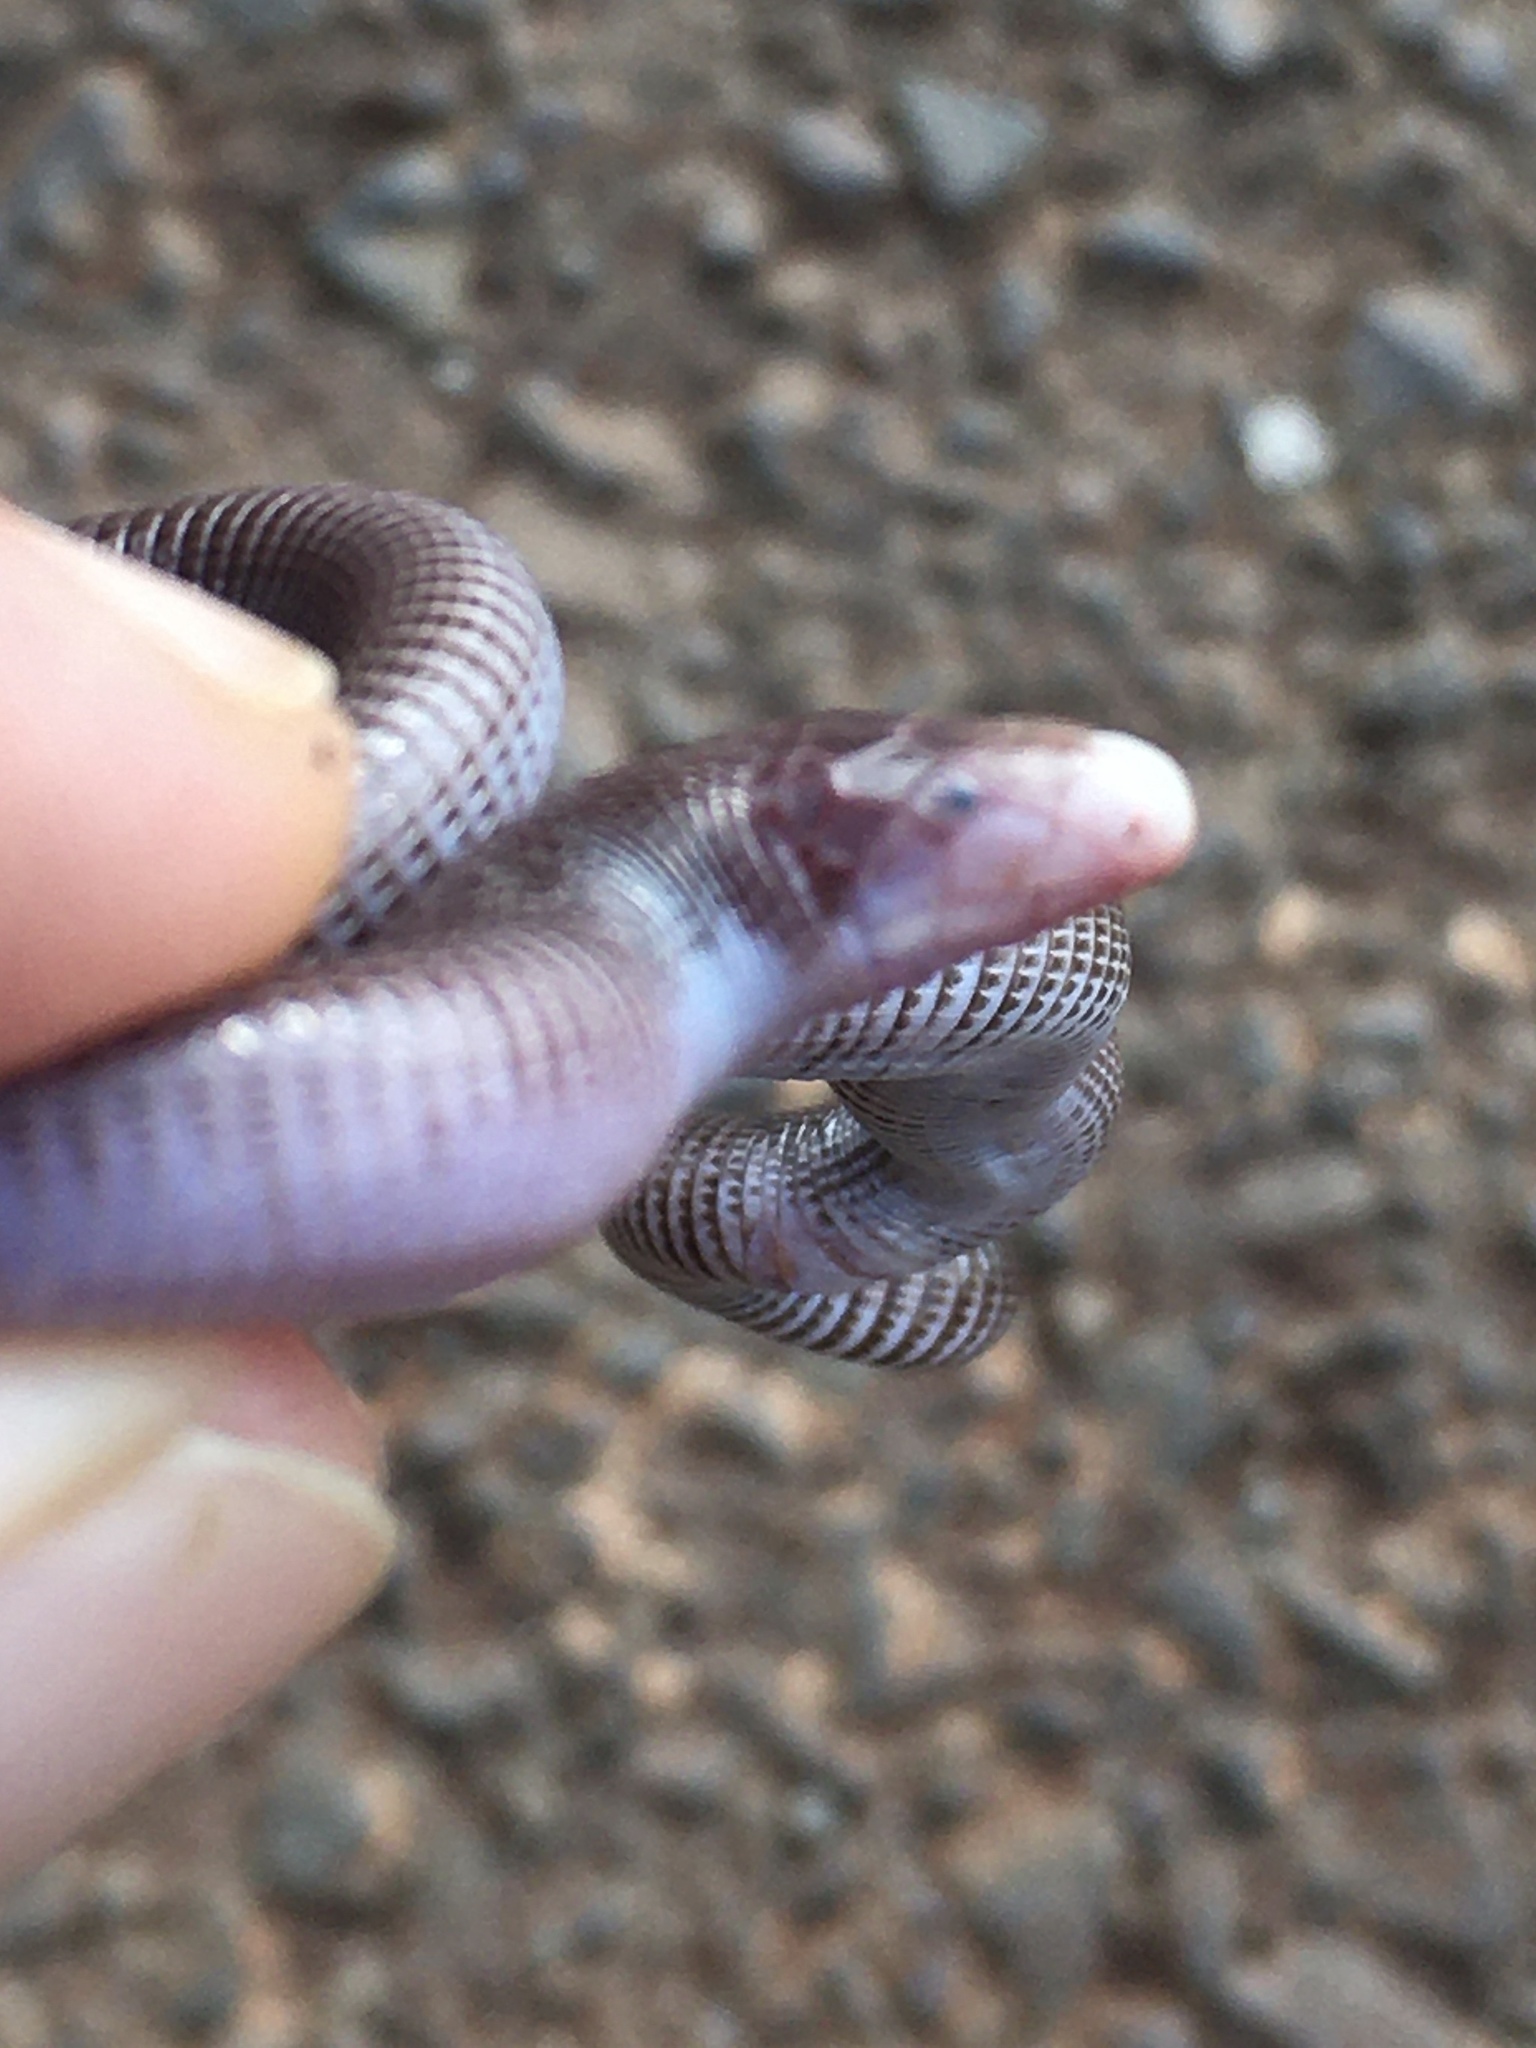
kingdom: Animalia
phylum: Chordata
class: Squamata
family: Amphisbaenidae
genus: Amphisbaena
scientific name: Amphisbaena mertensii
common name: Mertens' worm lizard
